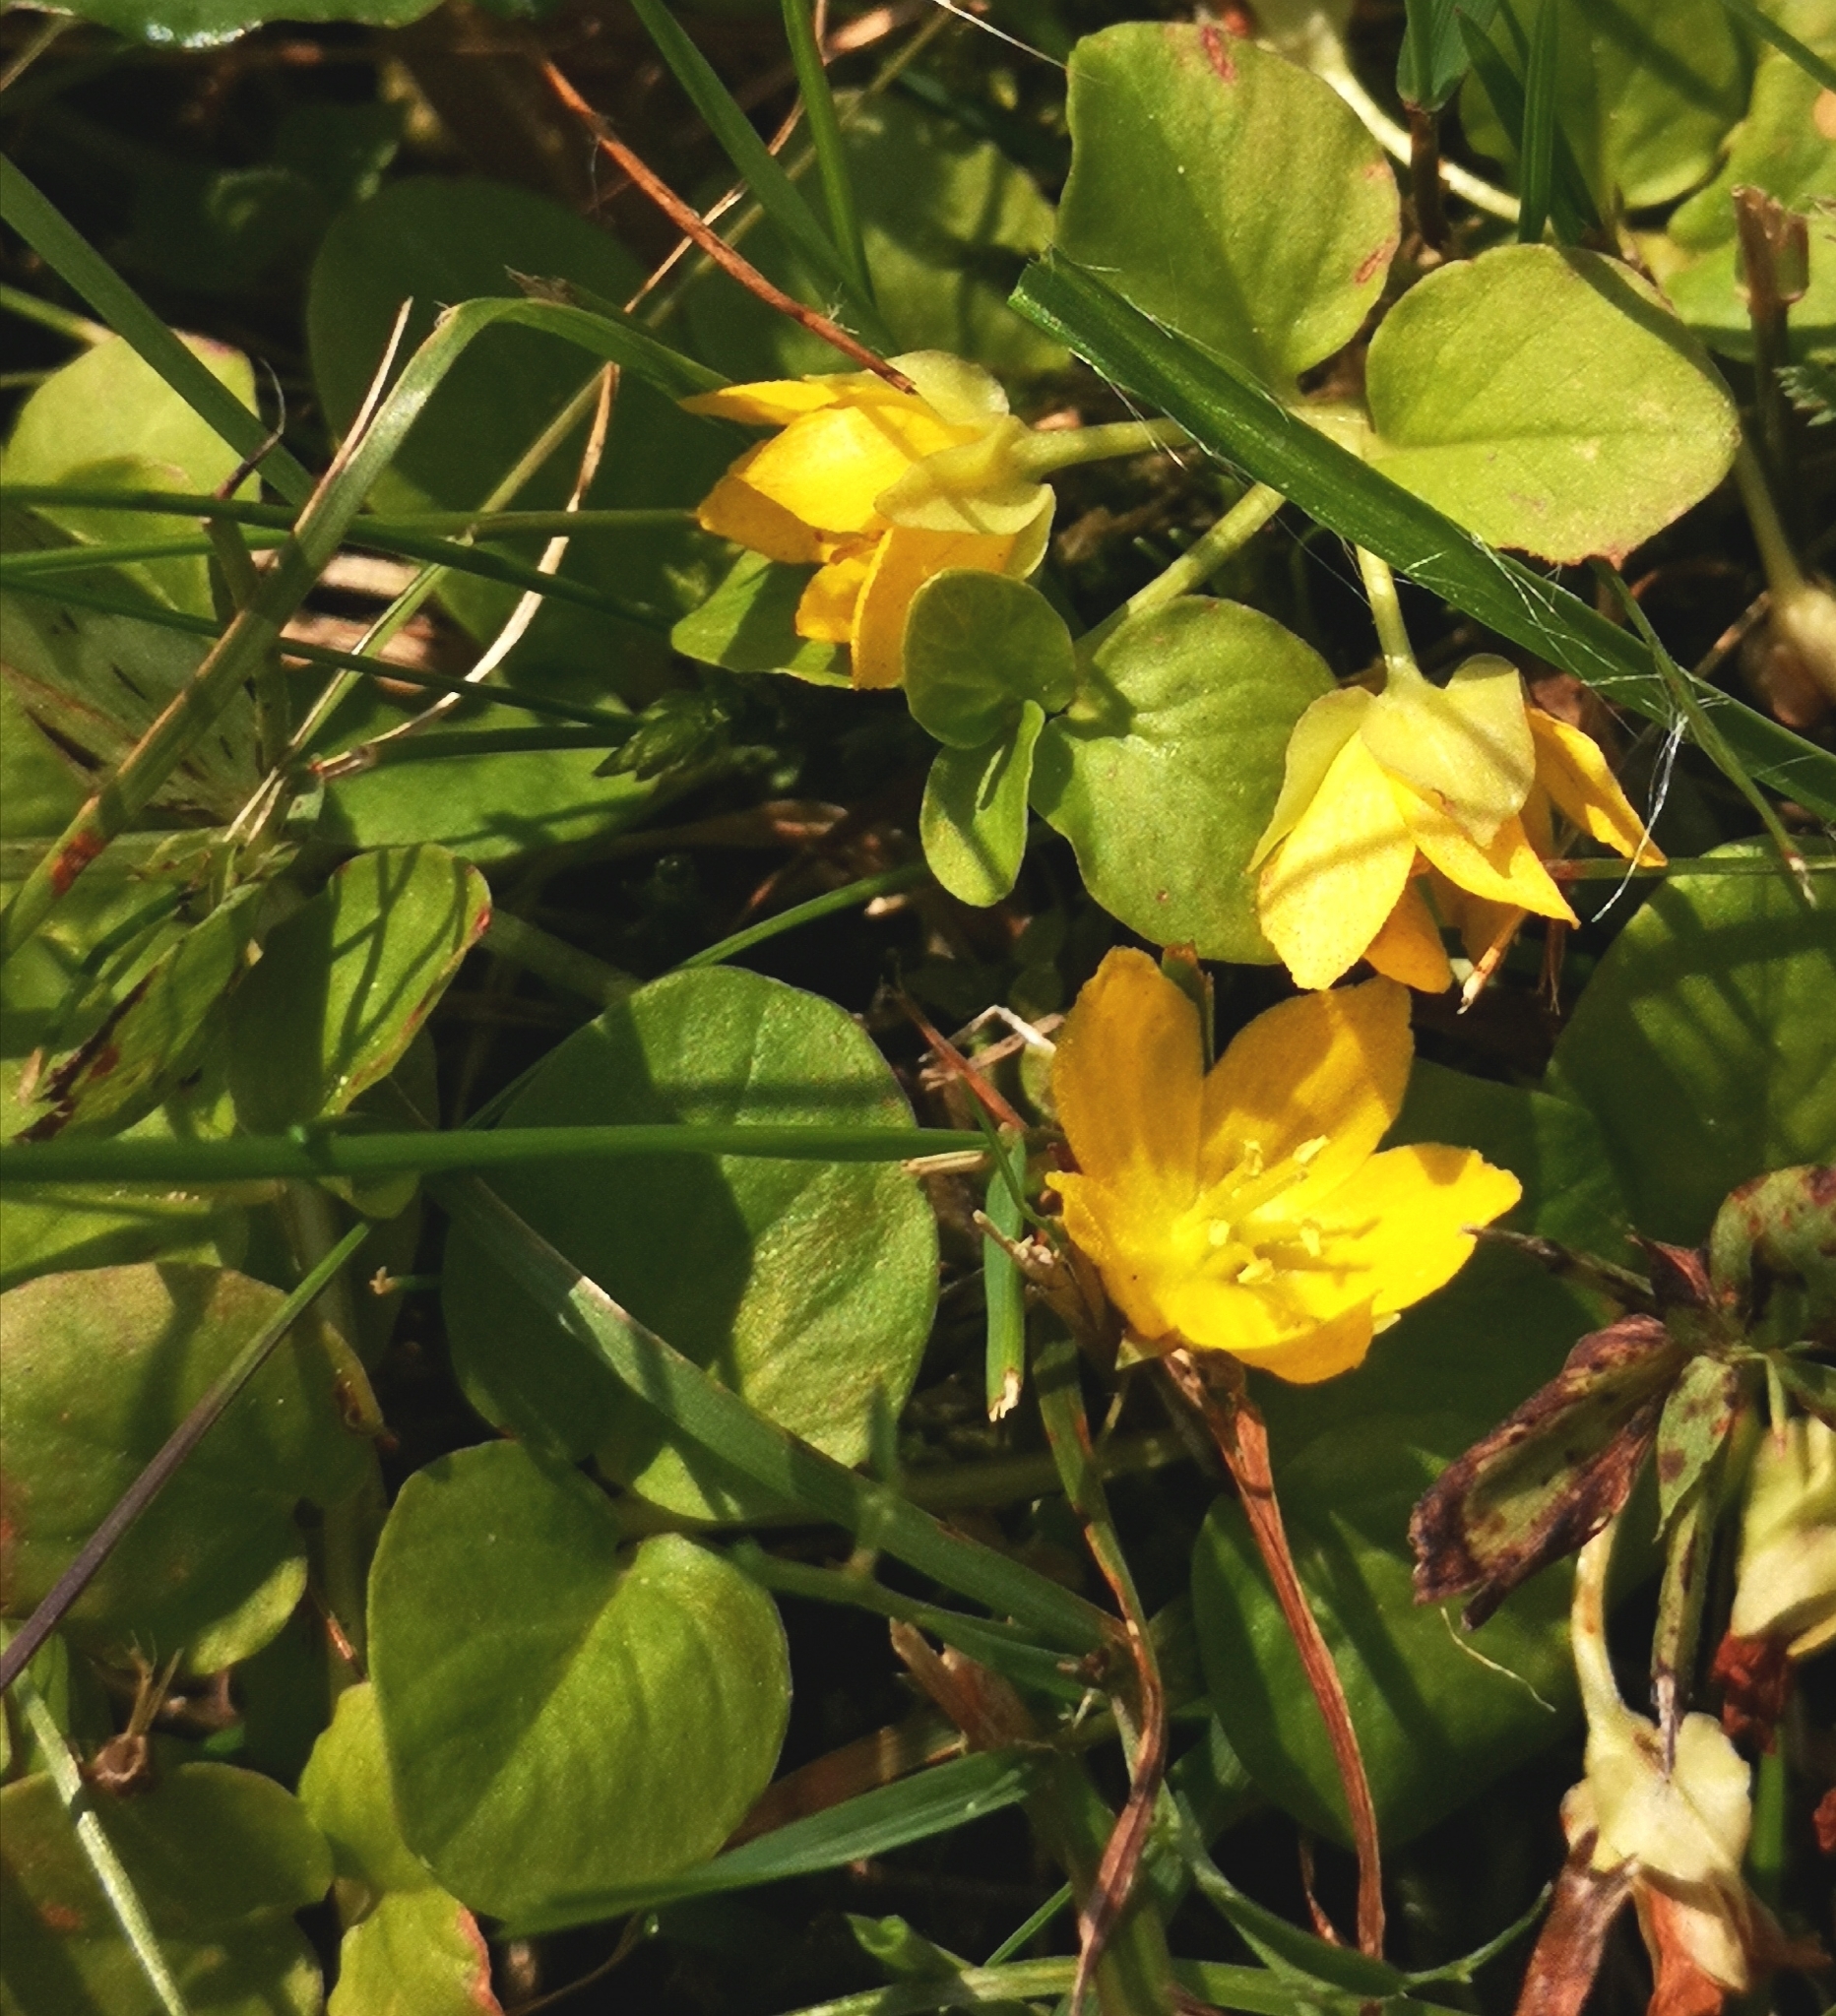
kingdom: Plantae
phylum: Tracheophyta
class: Magnoliopsida
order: Ericales
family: Primulaceae
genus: Lysimachia
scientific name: Lysimachia nummularia
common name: Moneywort
